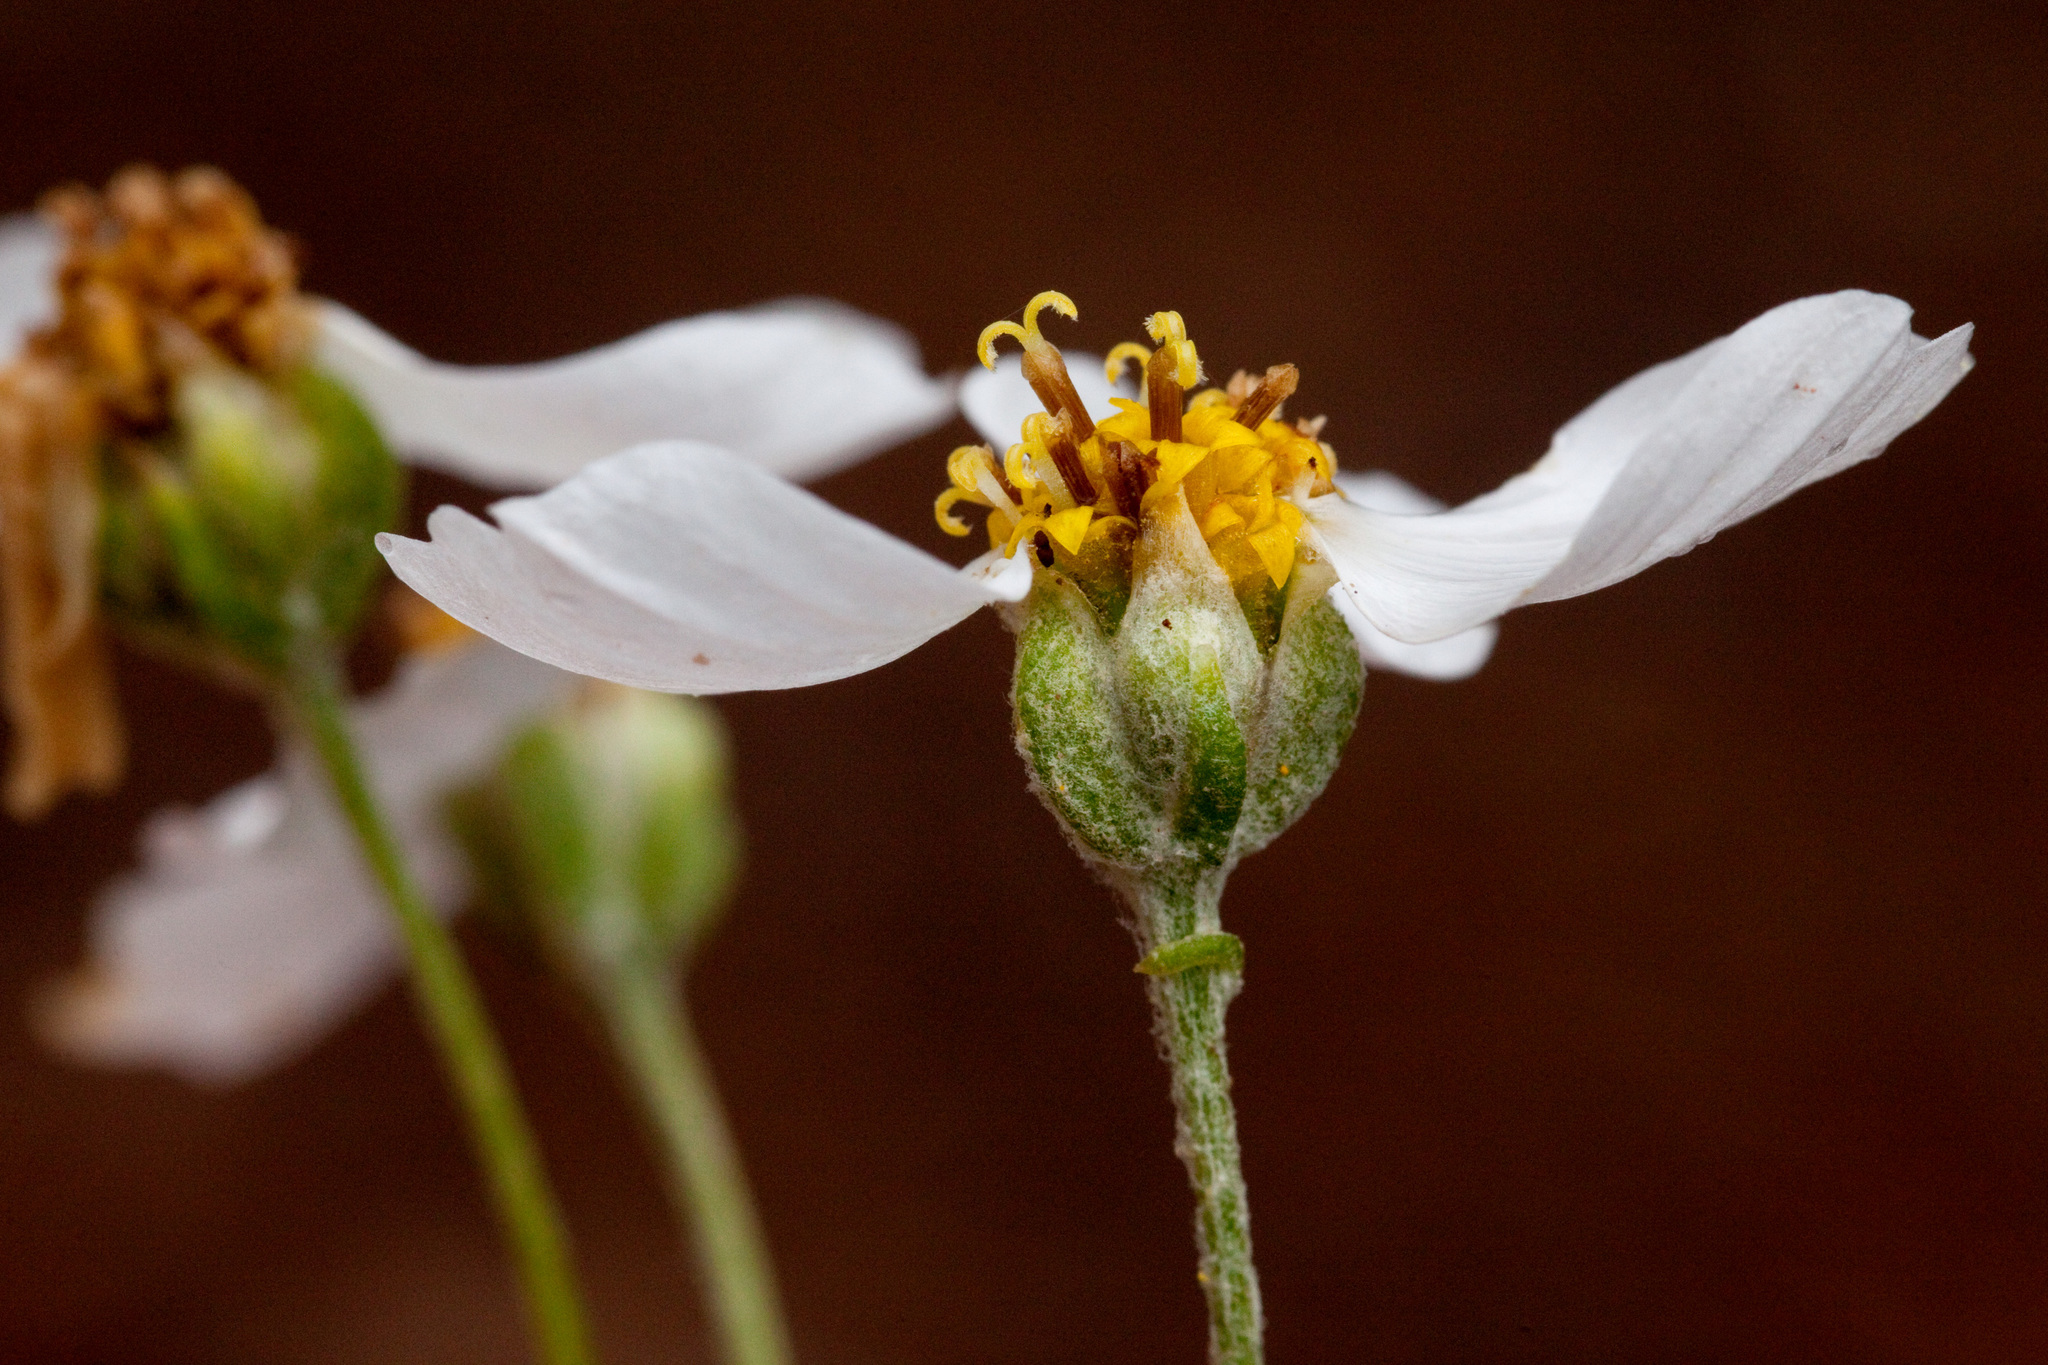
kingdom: Plantae
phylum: Tracheophyta
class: Magnoliopsida
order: Asterales
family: Asteraceae
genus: Hymenopappus
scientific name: Hymenopappus biennis
